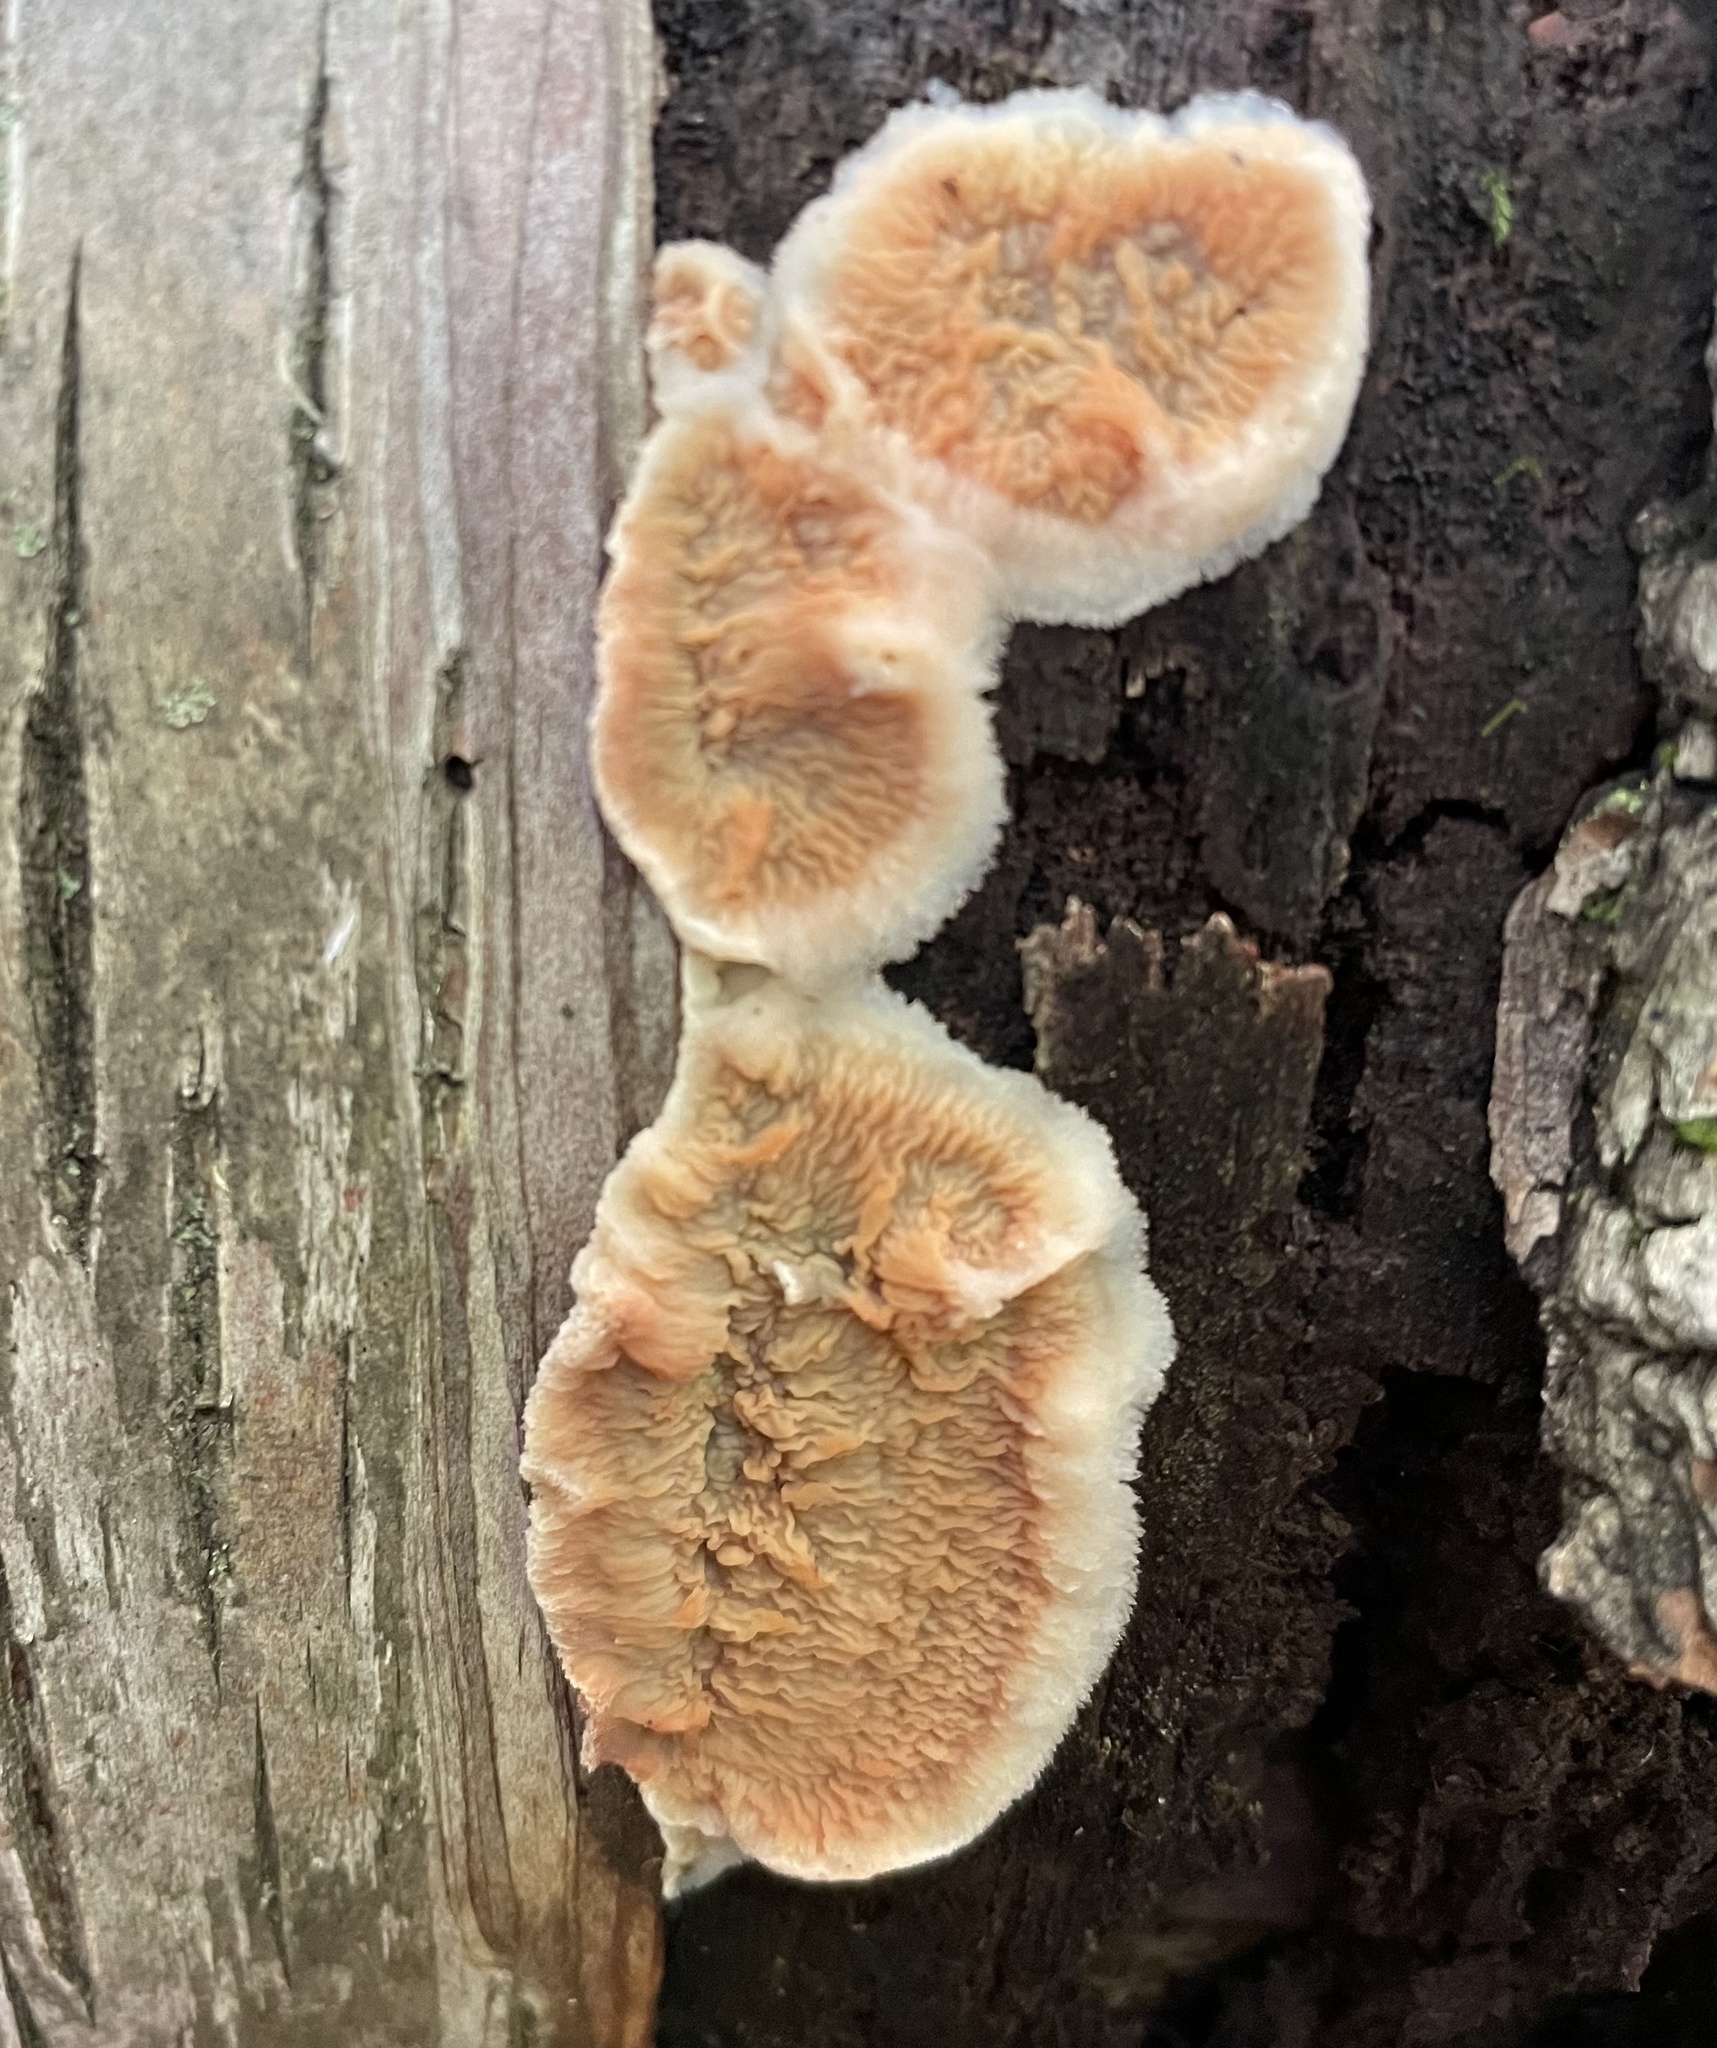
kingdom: Fungi
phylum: Basidiomycota
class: Agaricomycetes
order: Polyporales
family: Meruliaceae
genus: Phlebia
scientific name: Phlebia tremellosa
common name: Jelly rot
